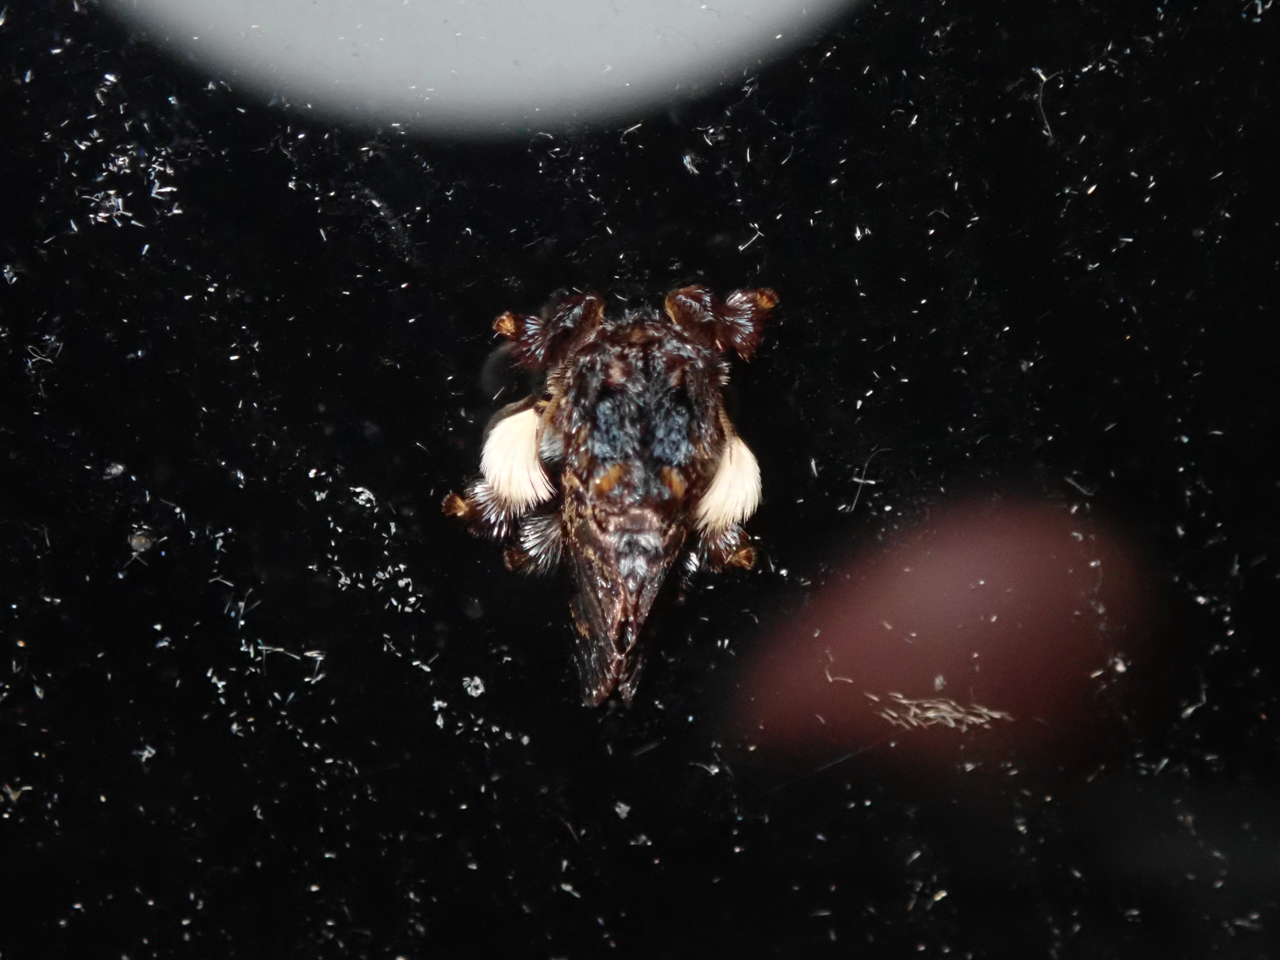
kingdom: Animalia
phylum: Arthropoda
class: Insecta
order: Lepidoptera
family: Limacodidae
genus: Phobetron
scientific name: Phobetron pithecium
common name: Hag moth
